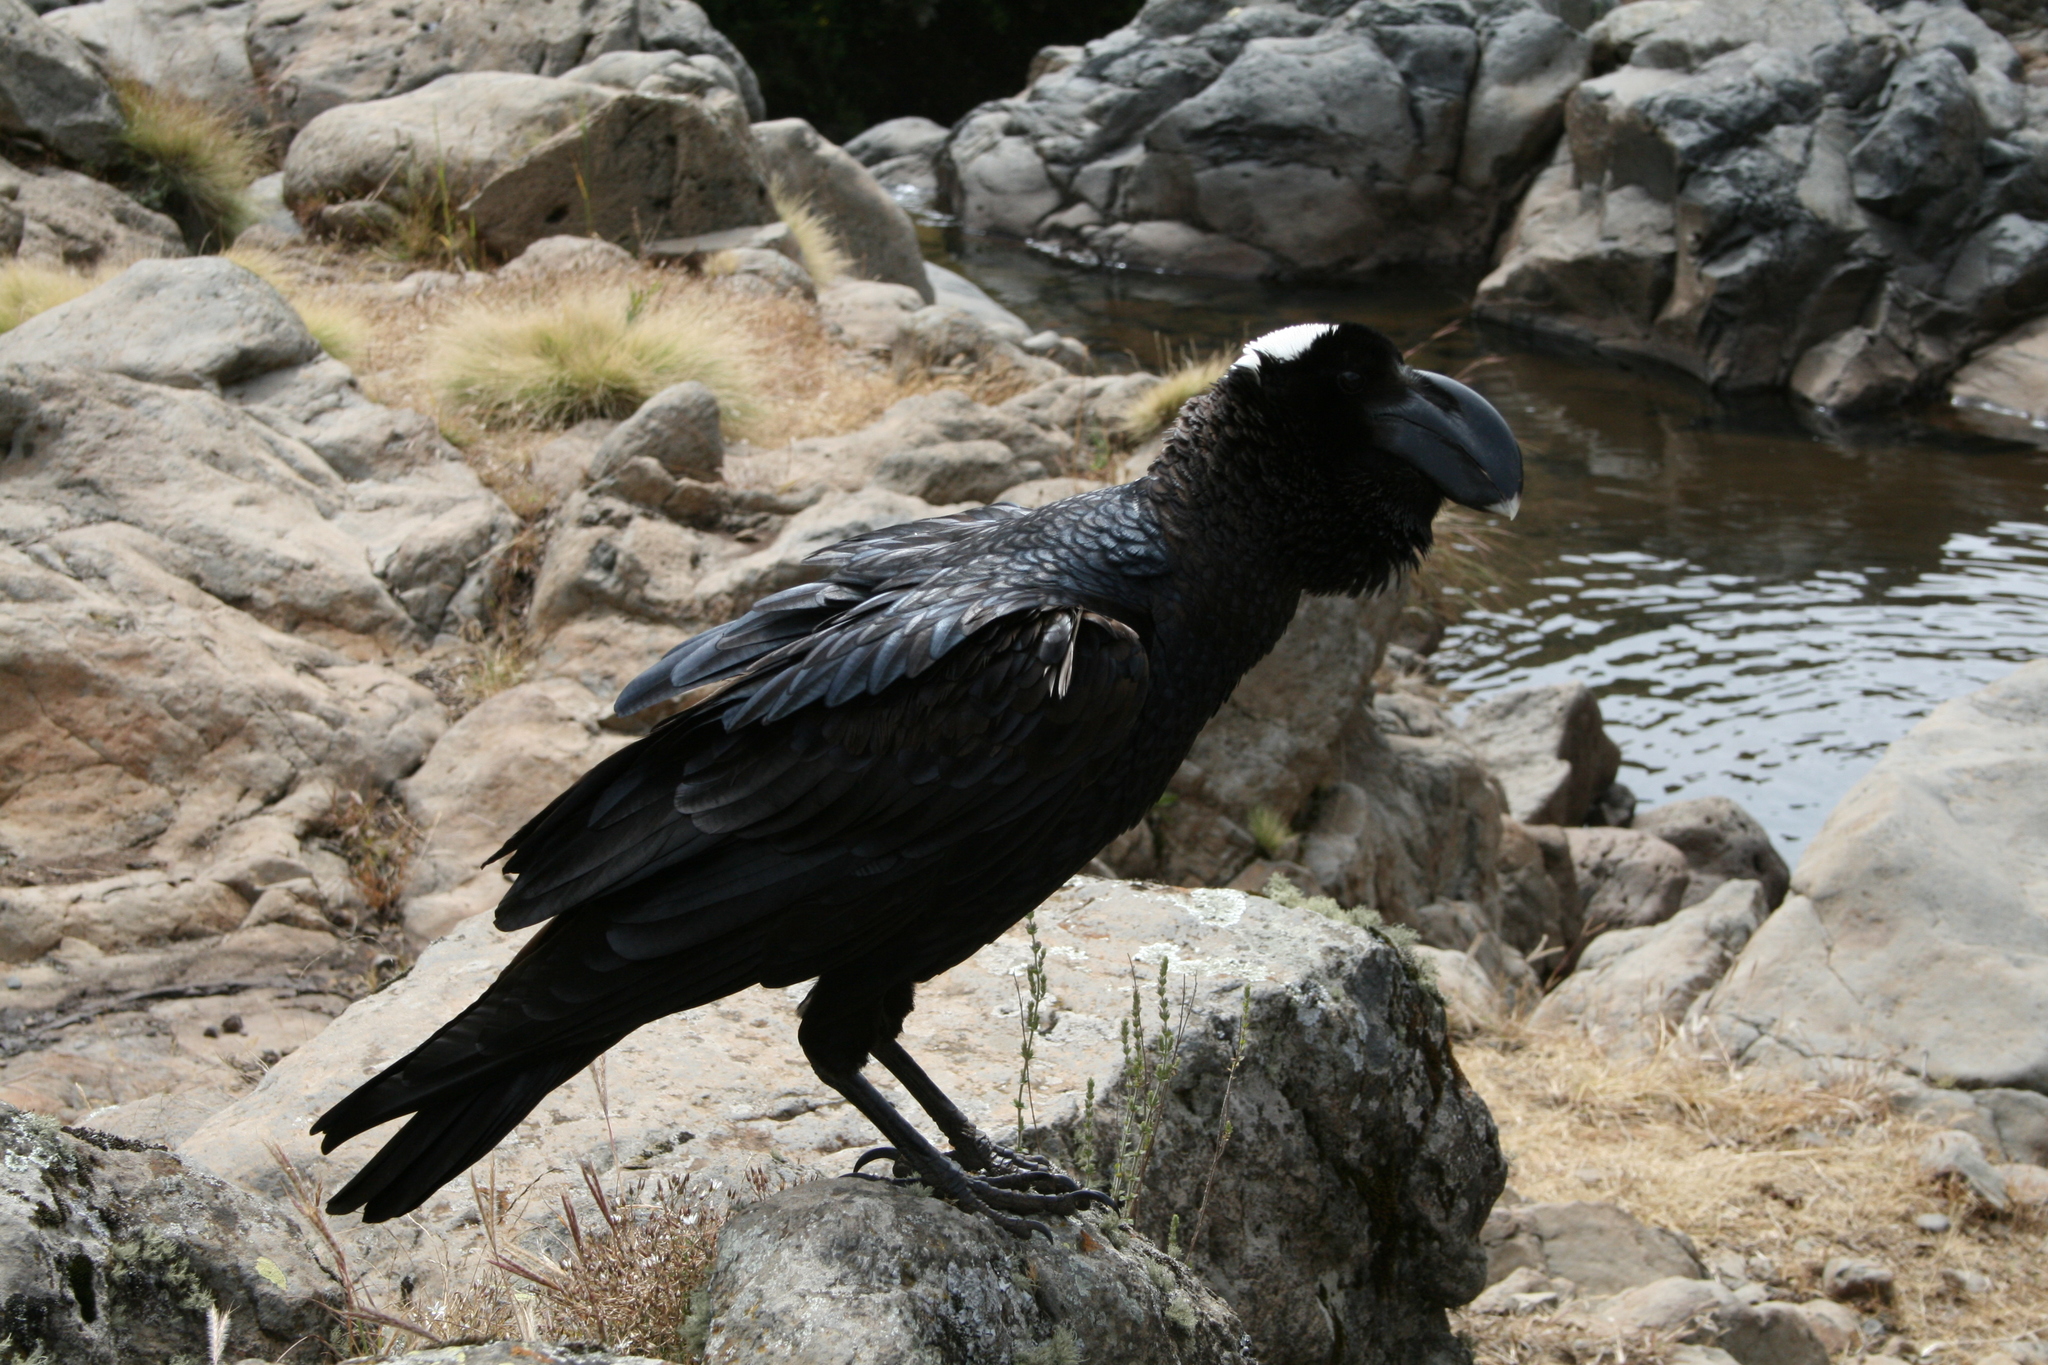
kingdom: Animalia
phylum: Chordata
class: Aves
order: Passeriformes
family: Corvidae
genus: Corvus
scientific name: Corvus crassirostris
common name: Thick-billed raven
